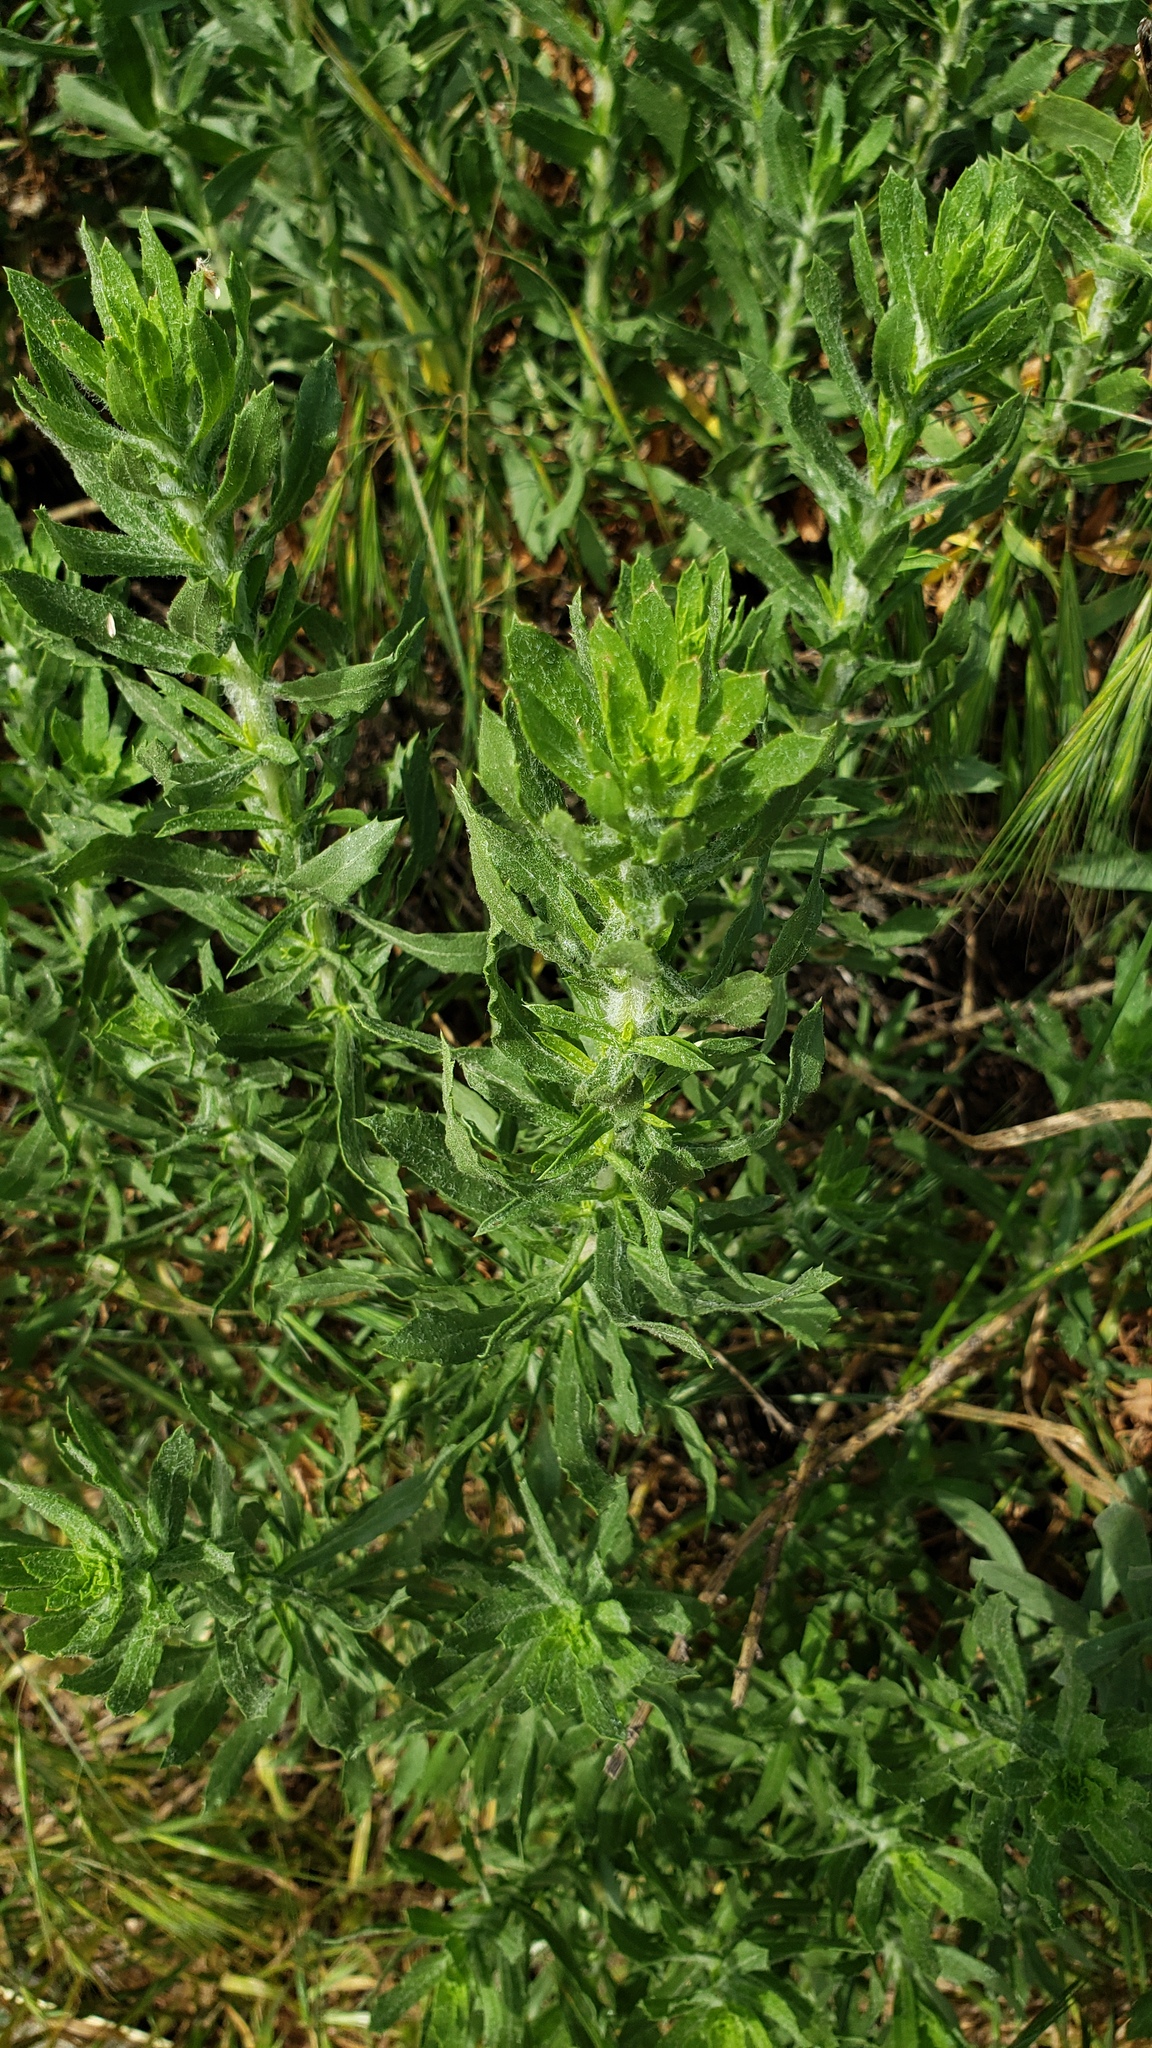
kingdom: Plantae
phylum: Tracheophyta
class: Magnoliopsida
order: Asterales
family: Asteraceae
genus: Isocoma
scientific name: Isocoma menziesii
